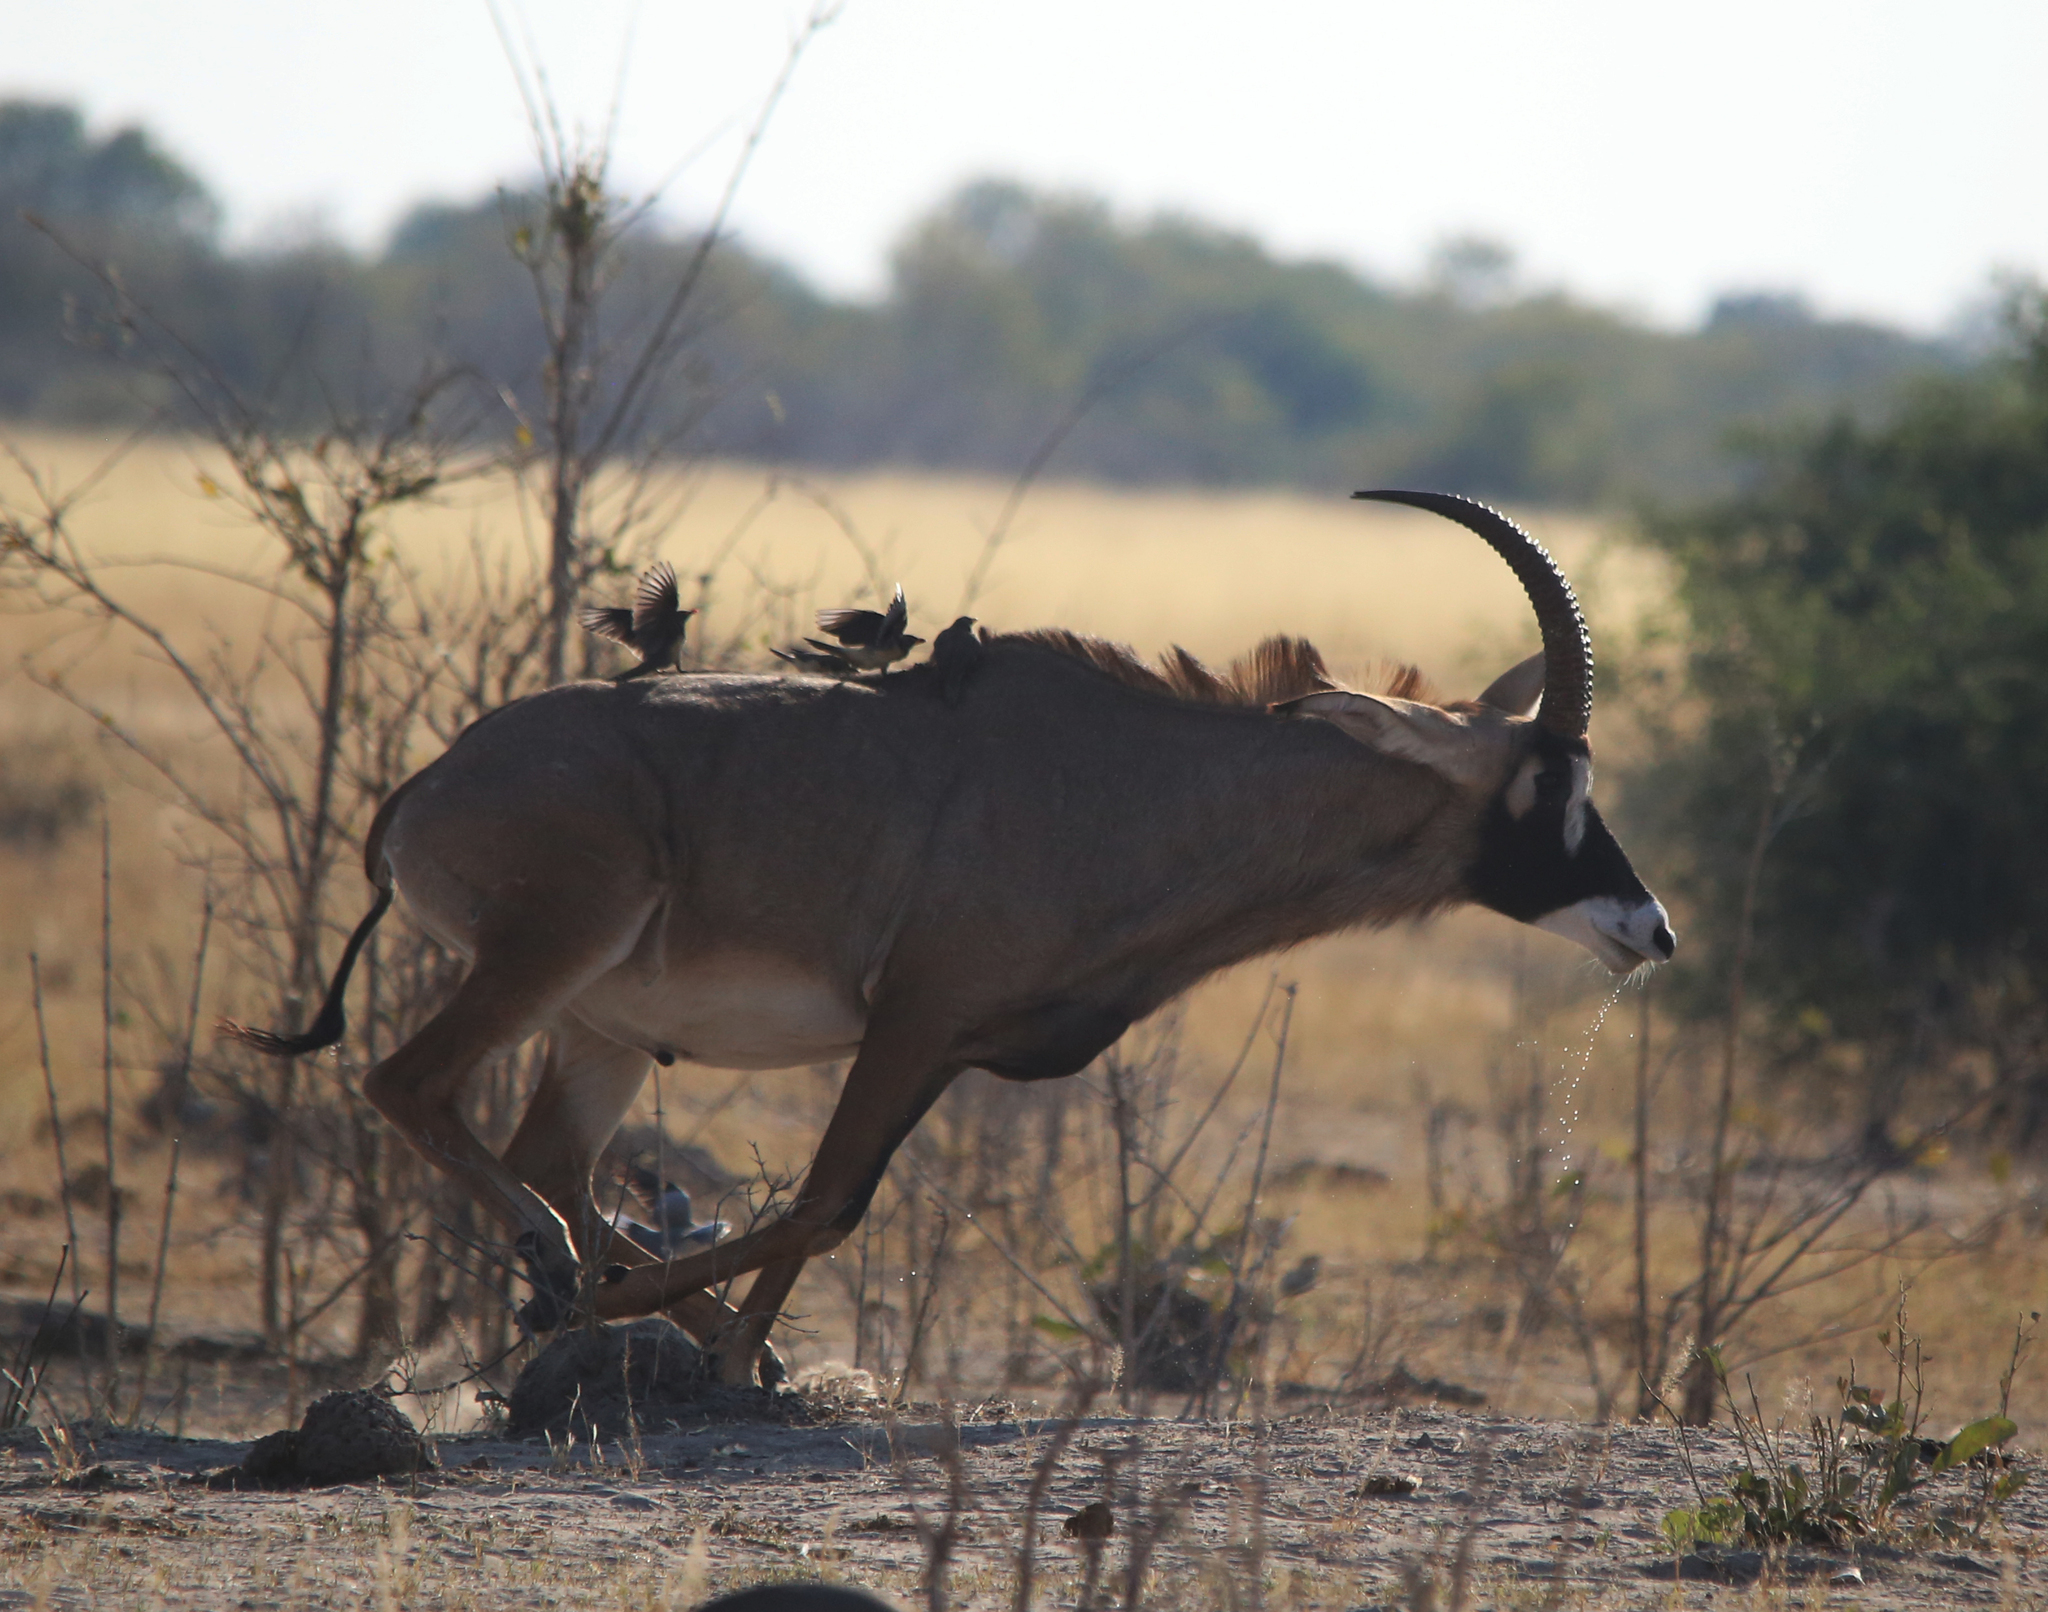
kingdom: Animalia
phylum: Chordata
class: Mammalia
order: Artiodactyla
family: Bovidae
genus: Hippotragus
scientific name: Hippotragus equinus
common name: Roan antelope
